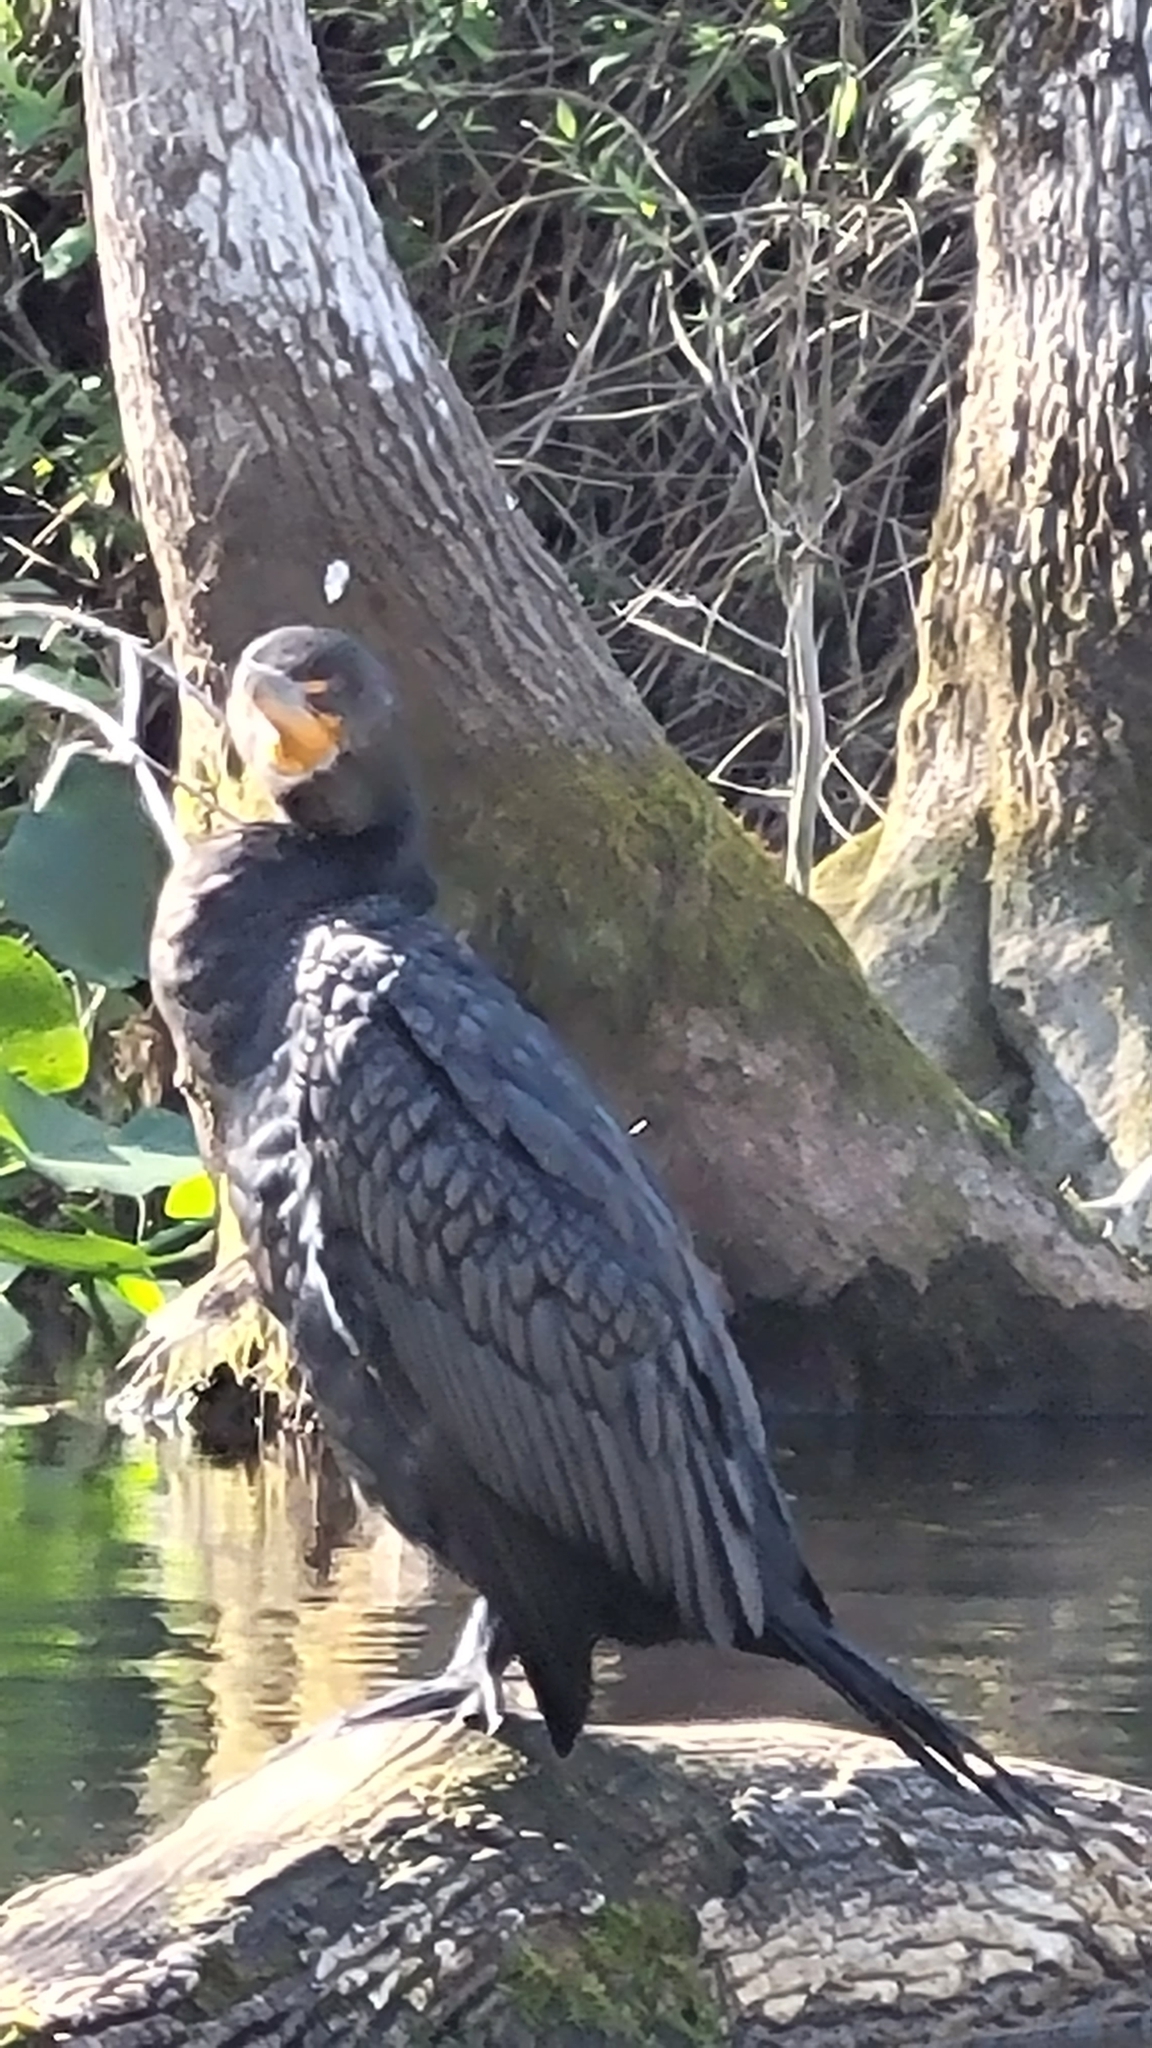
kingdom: Animalia
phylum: Chordata
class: Aves
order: Suliformes
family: Phalacrocoracidae
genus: Phalacrocorax
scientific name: Phalacrocorax auritus
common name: Double-crested cormorant
